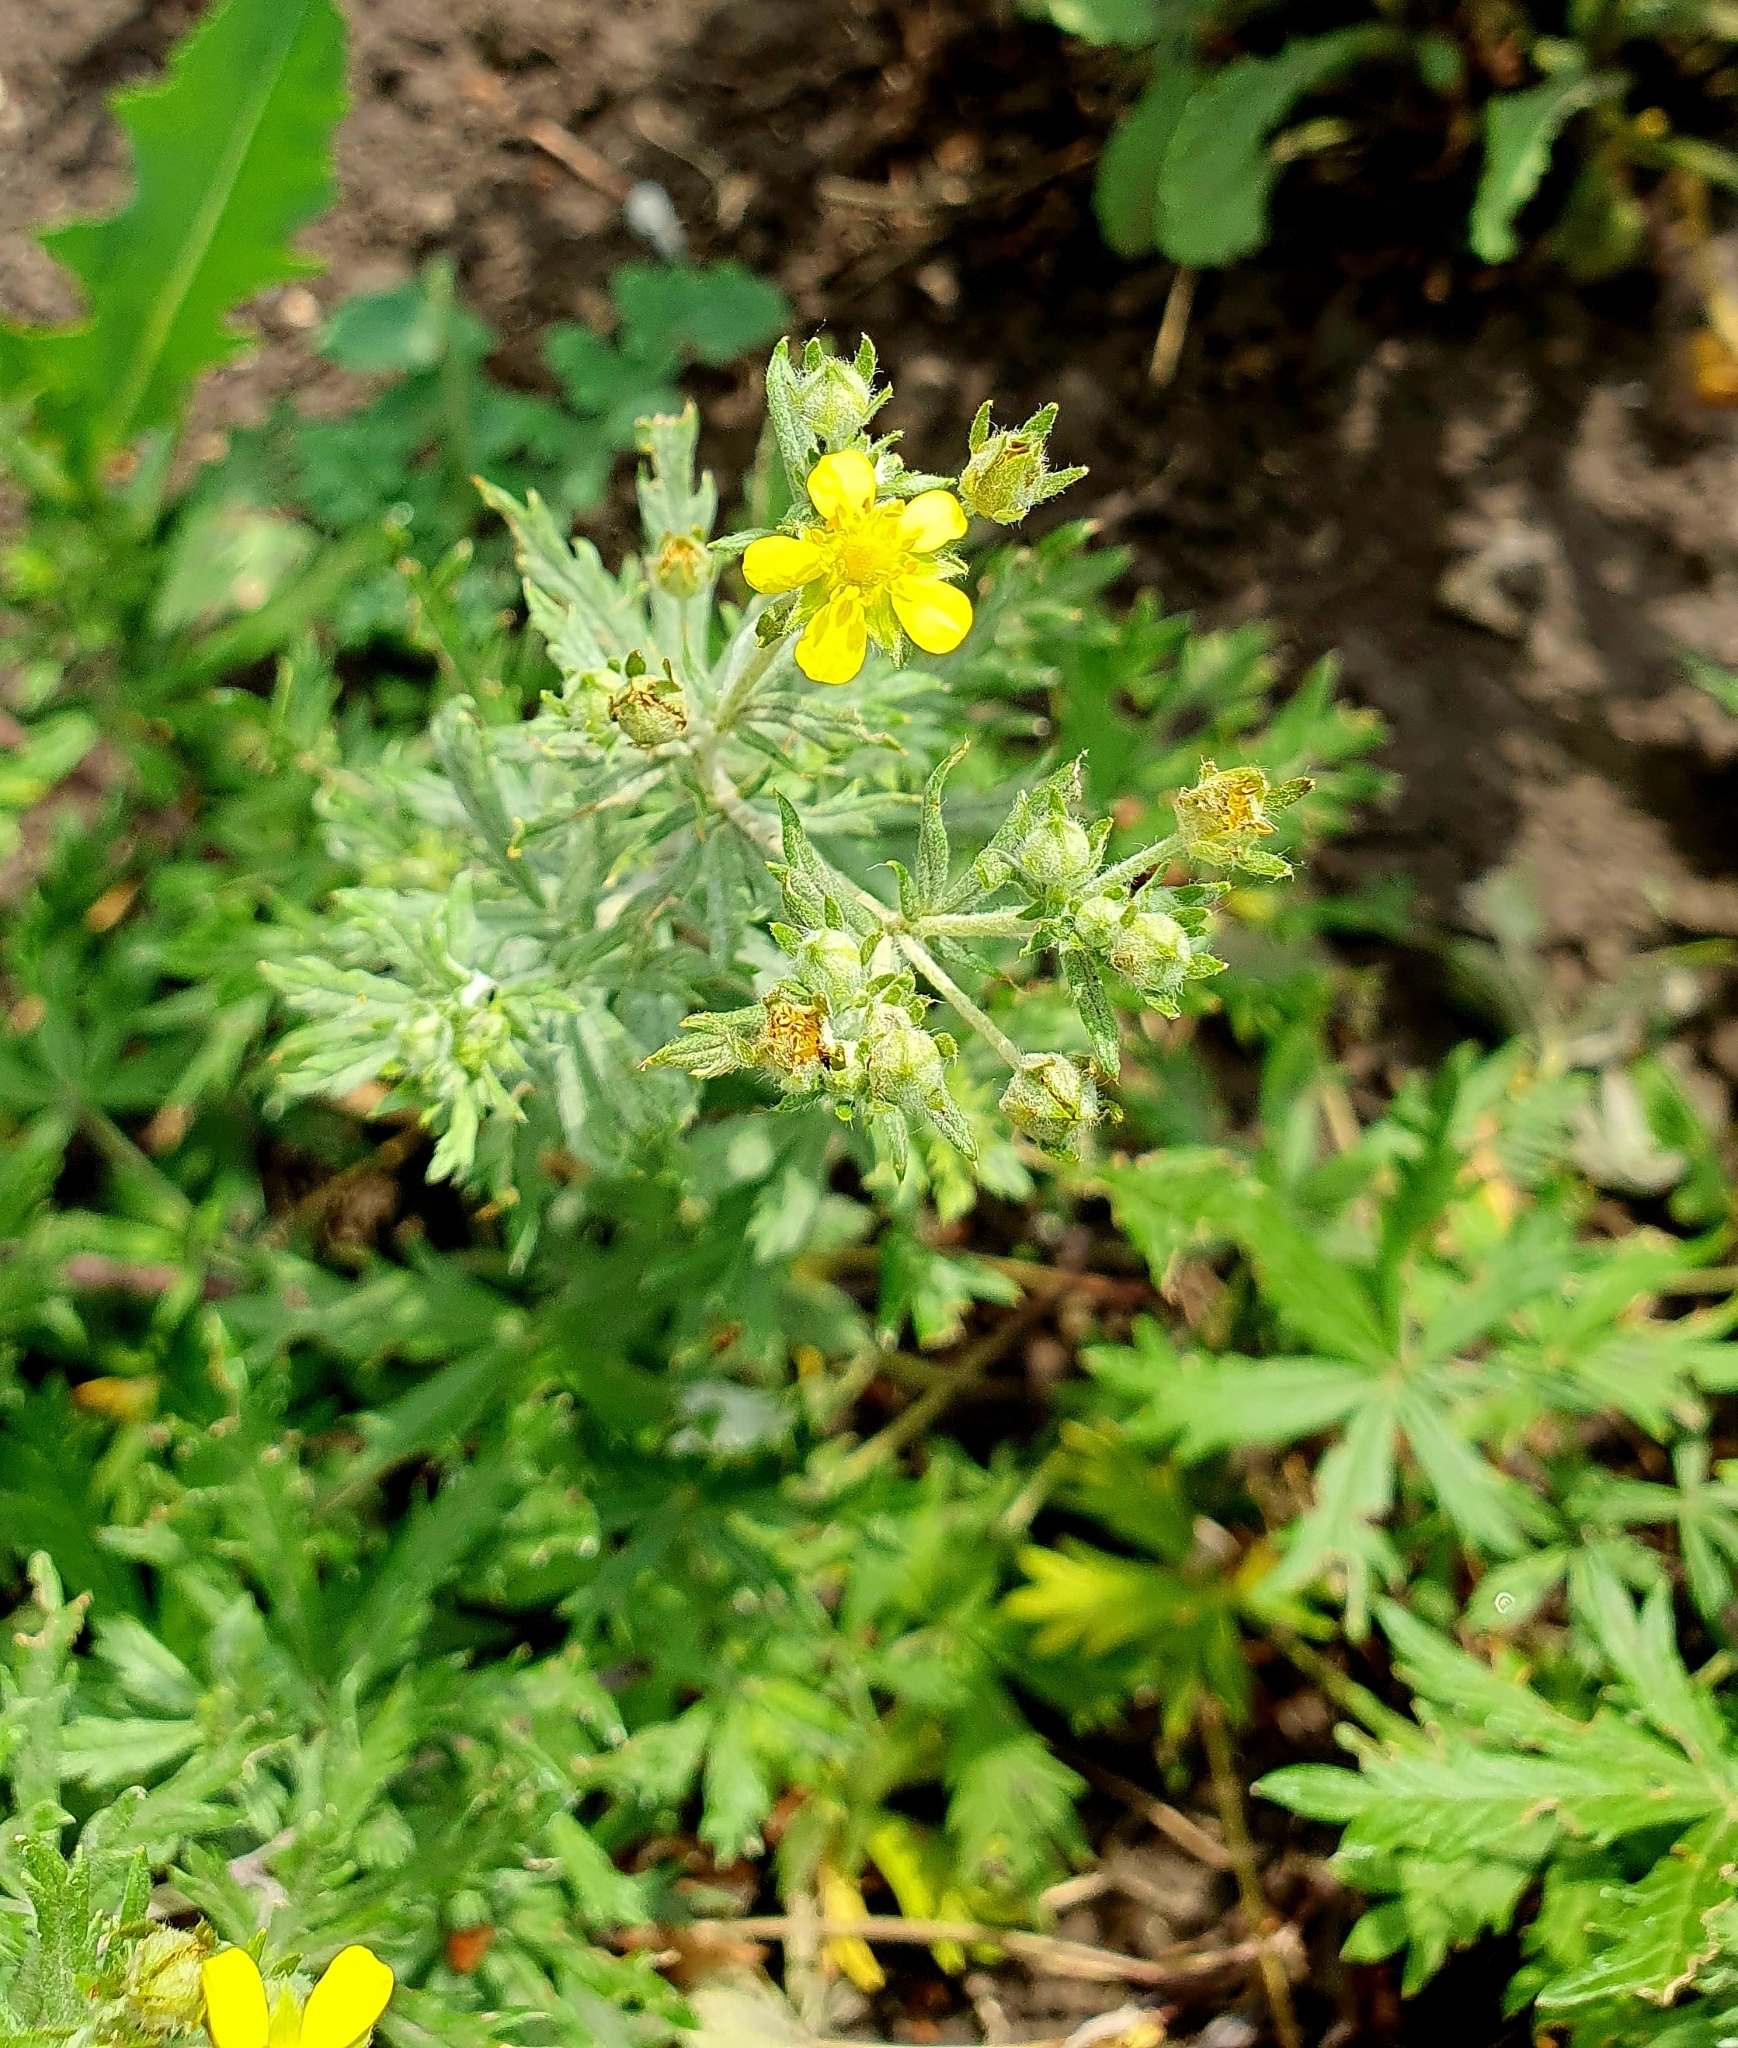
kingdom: Plantae
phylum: Tracheophyta
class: Magnoliopsida
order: Rosales
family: Rosaceae
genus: Potentilla
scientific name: Potentilla argentea
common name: Hoary cinquefoil
